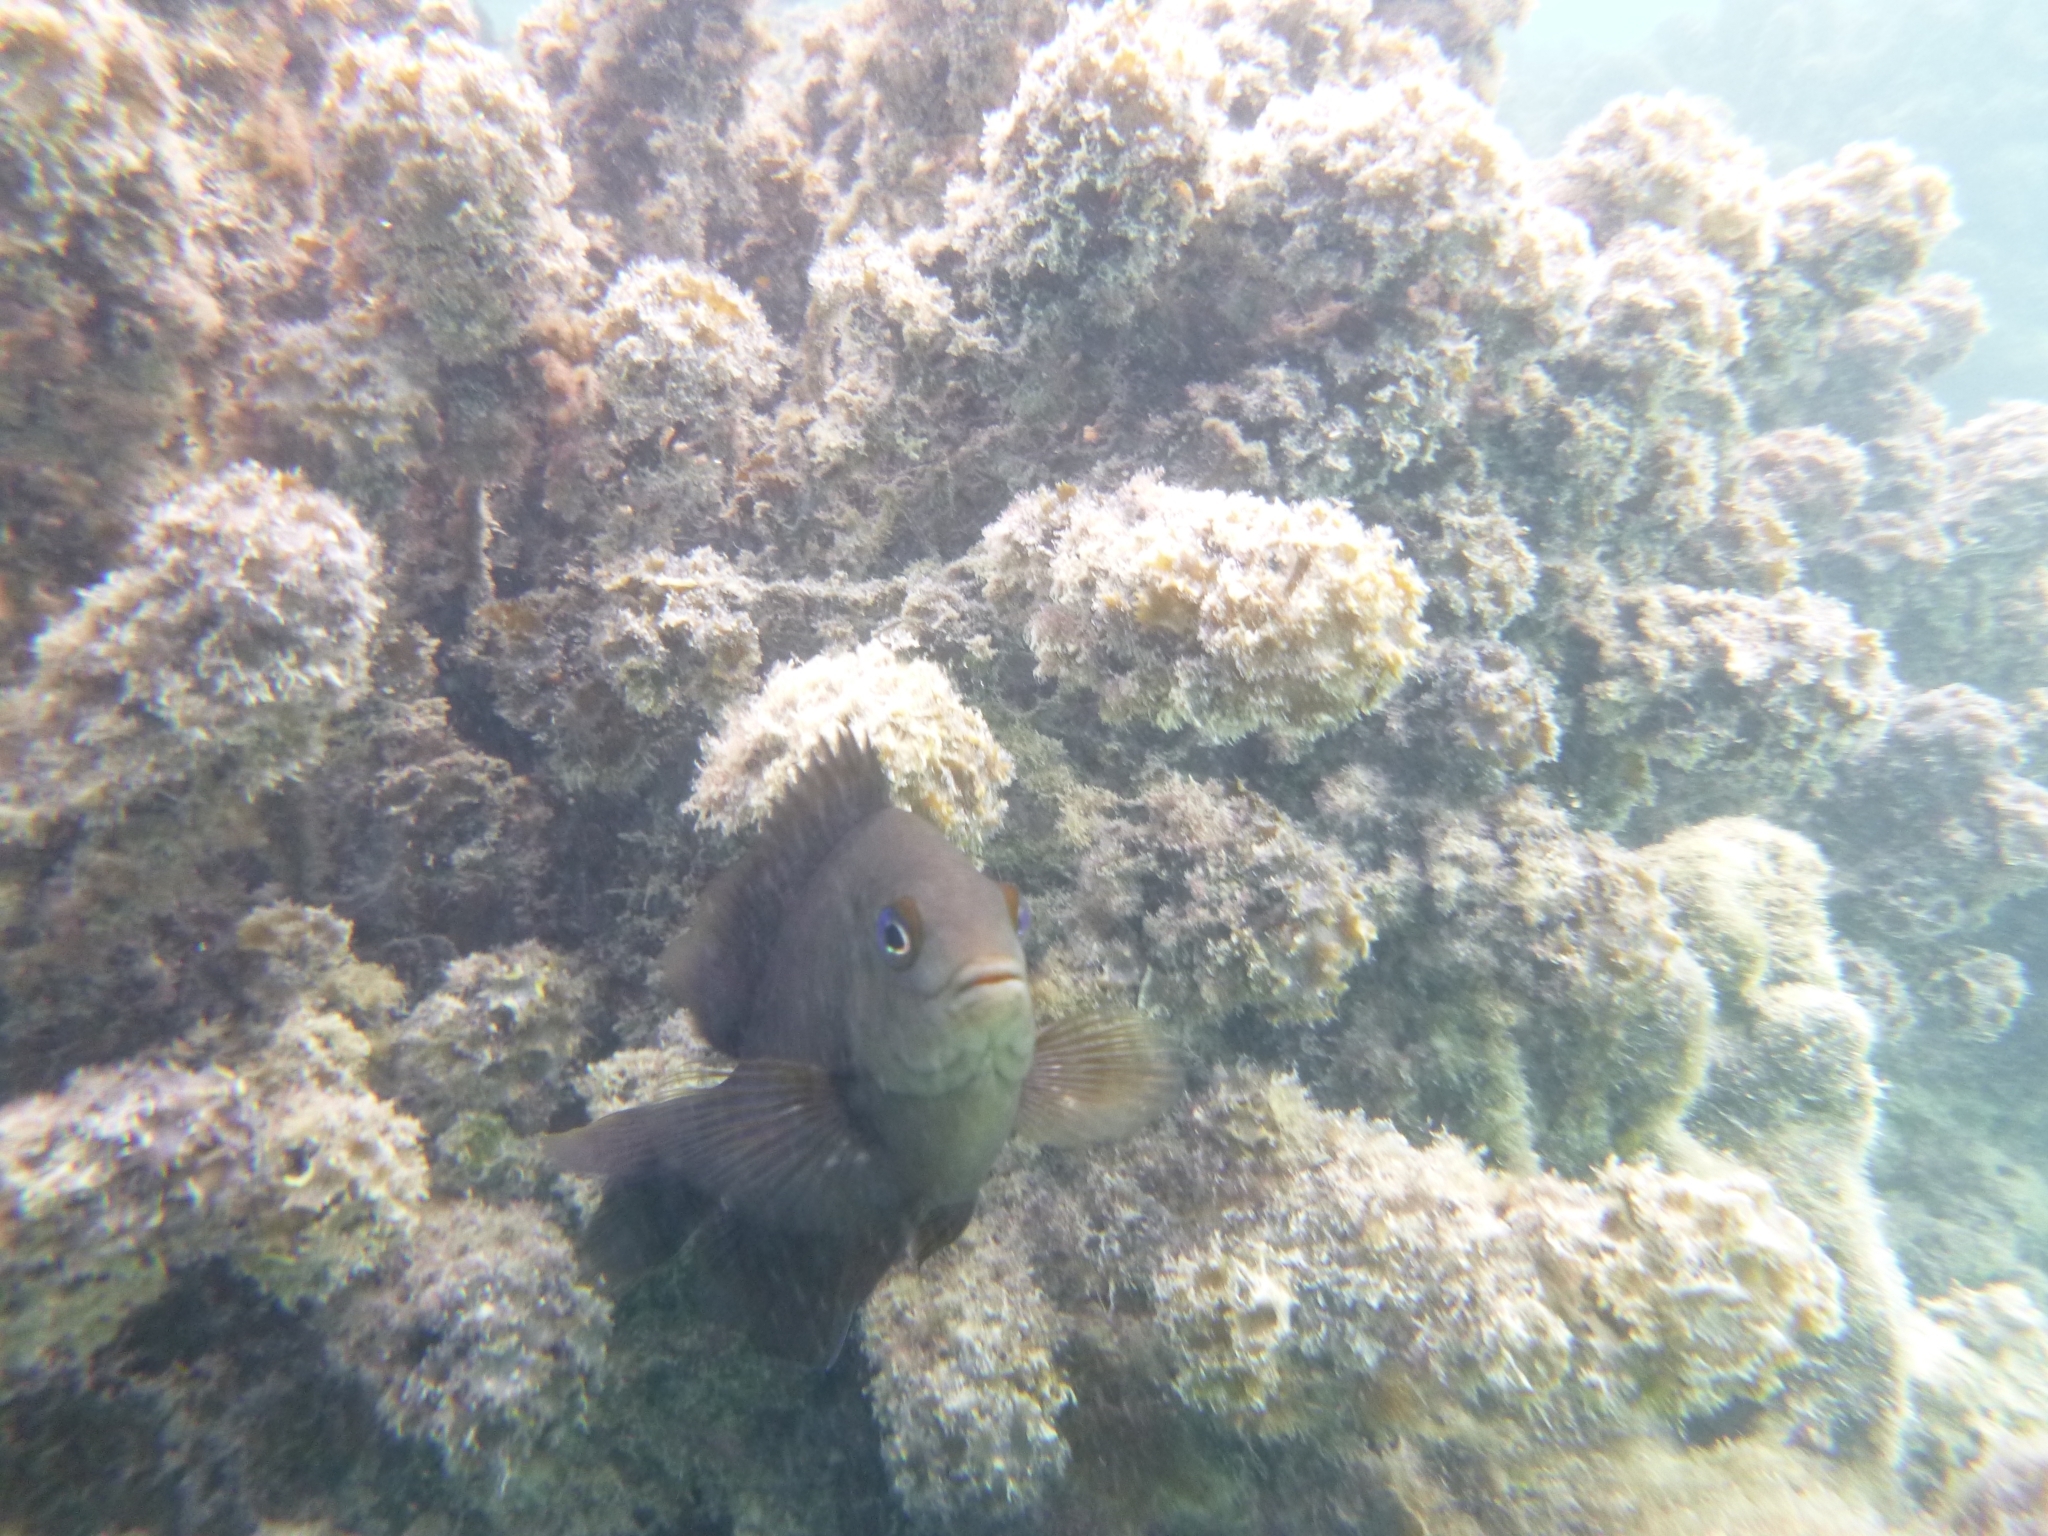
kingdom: Animalia
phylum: Chordata
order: Perciformes
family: Pomacentridae
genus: Stegastes
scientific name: Stegastes nigricans
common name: Dusky gregory
